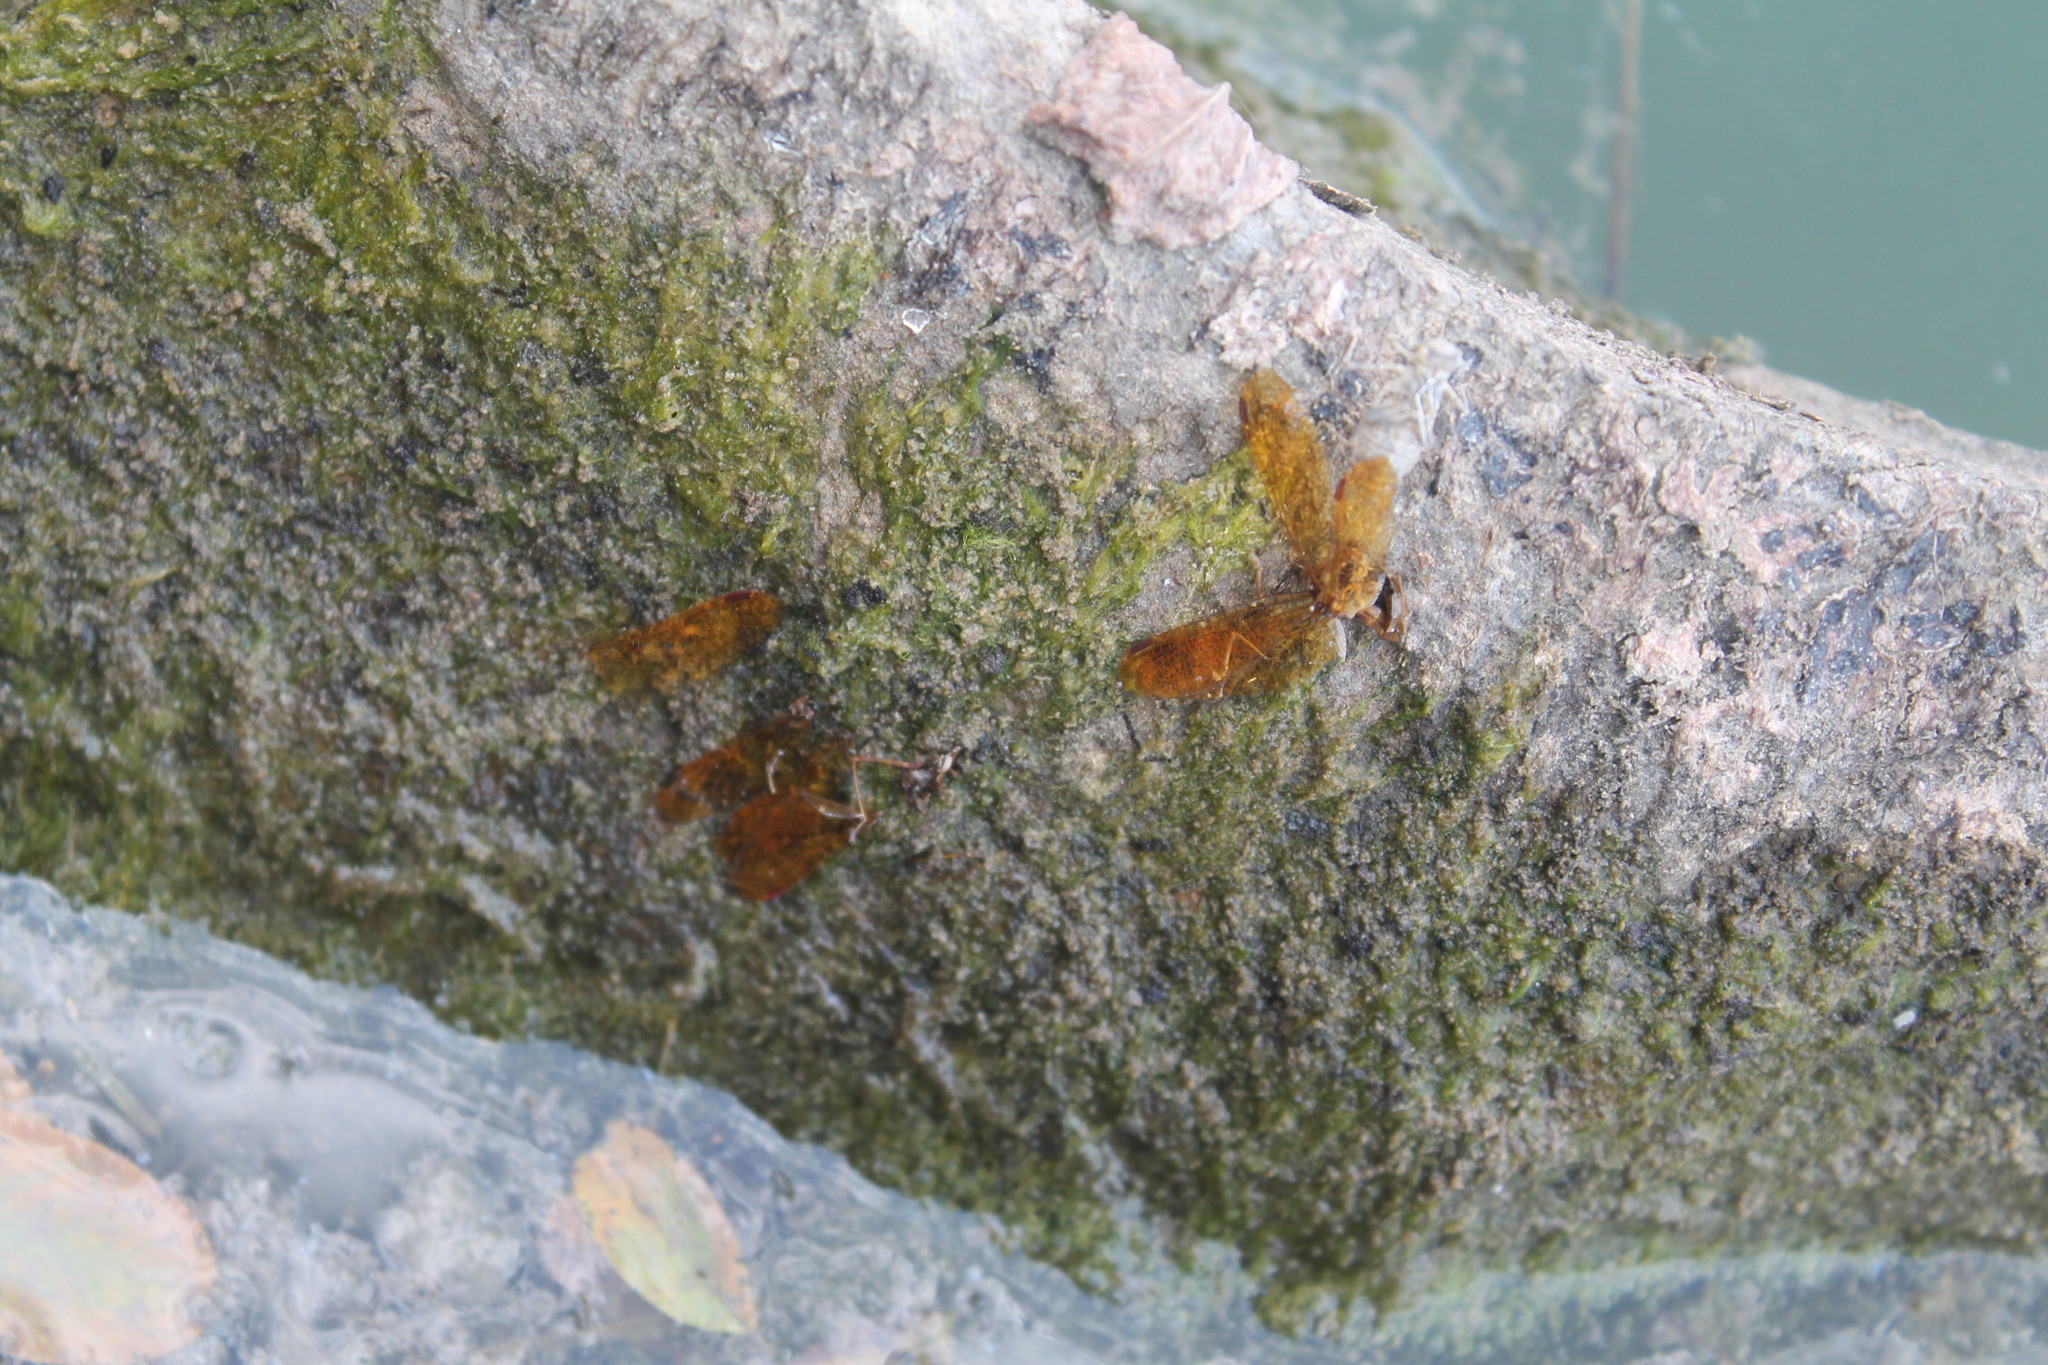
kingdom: Animalia
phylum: Arthropoda
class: Insecta
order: Odonata
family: Libellulidae
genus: Perithemis
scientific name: Perithemis tenera
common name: Eastern amberwing
